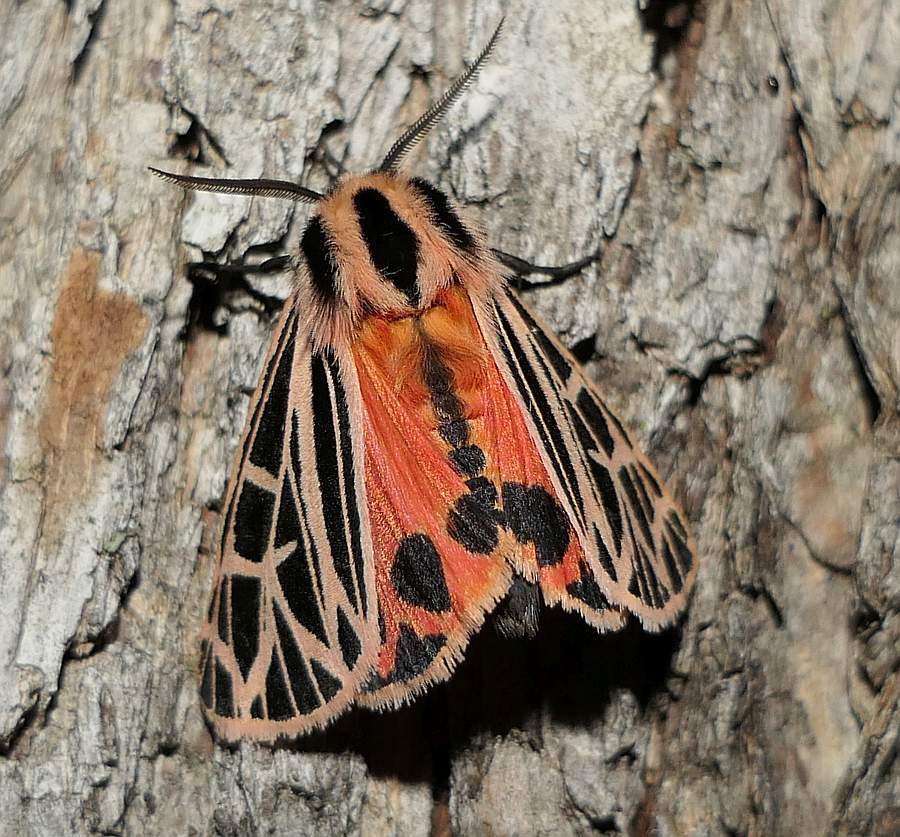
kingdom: Animalia
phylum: Arthropoda
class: Insecta
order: Lepidoptera
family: Erebidae
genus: Grammia
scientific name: Grammia parthenice
